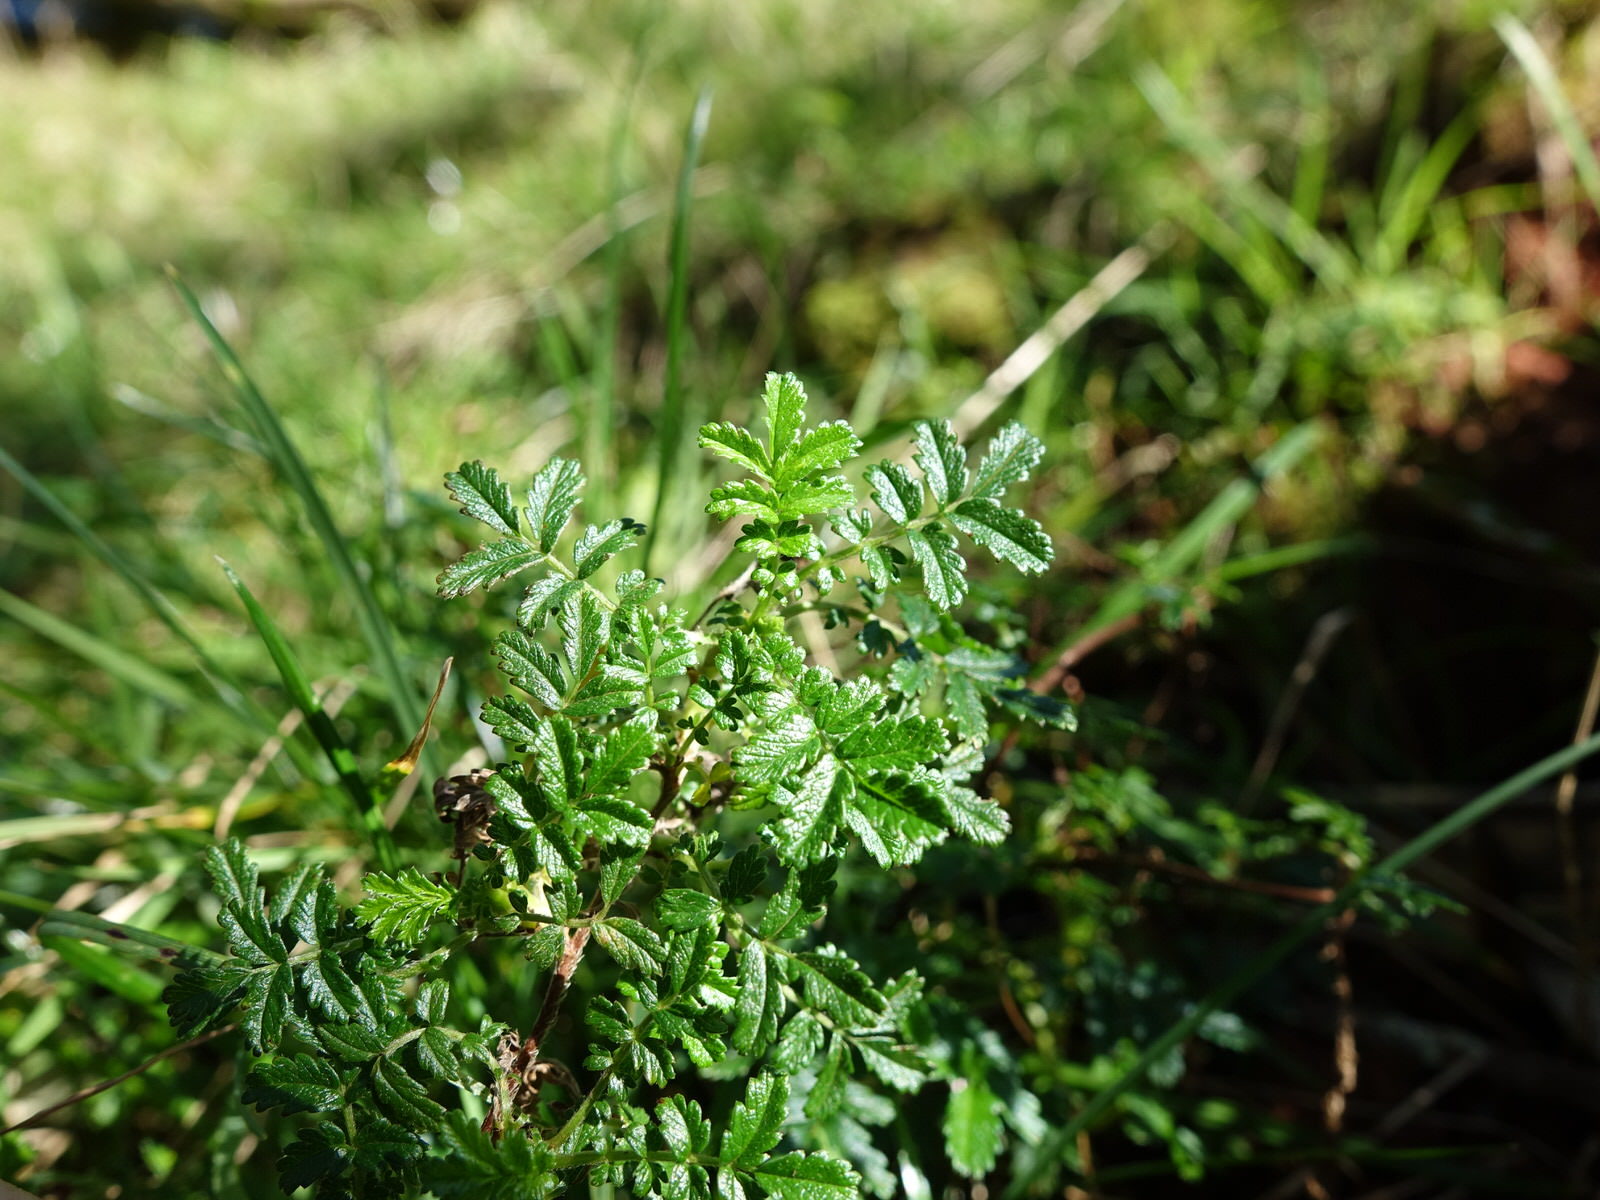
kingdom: Plantae
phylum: Tracheophyta
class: Magnoliopsida
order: Rosales
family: Rosaceae
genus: Acaena
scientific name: Acaena novae-zelandiae
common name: Pirri-pirri-bur
